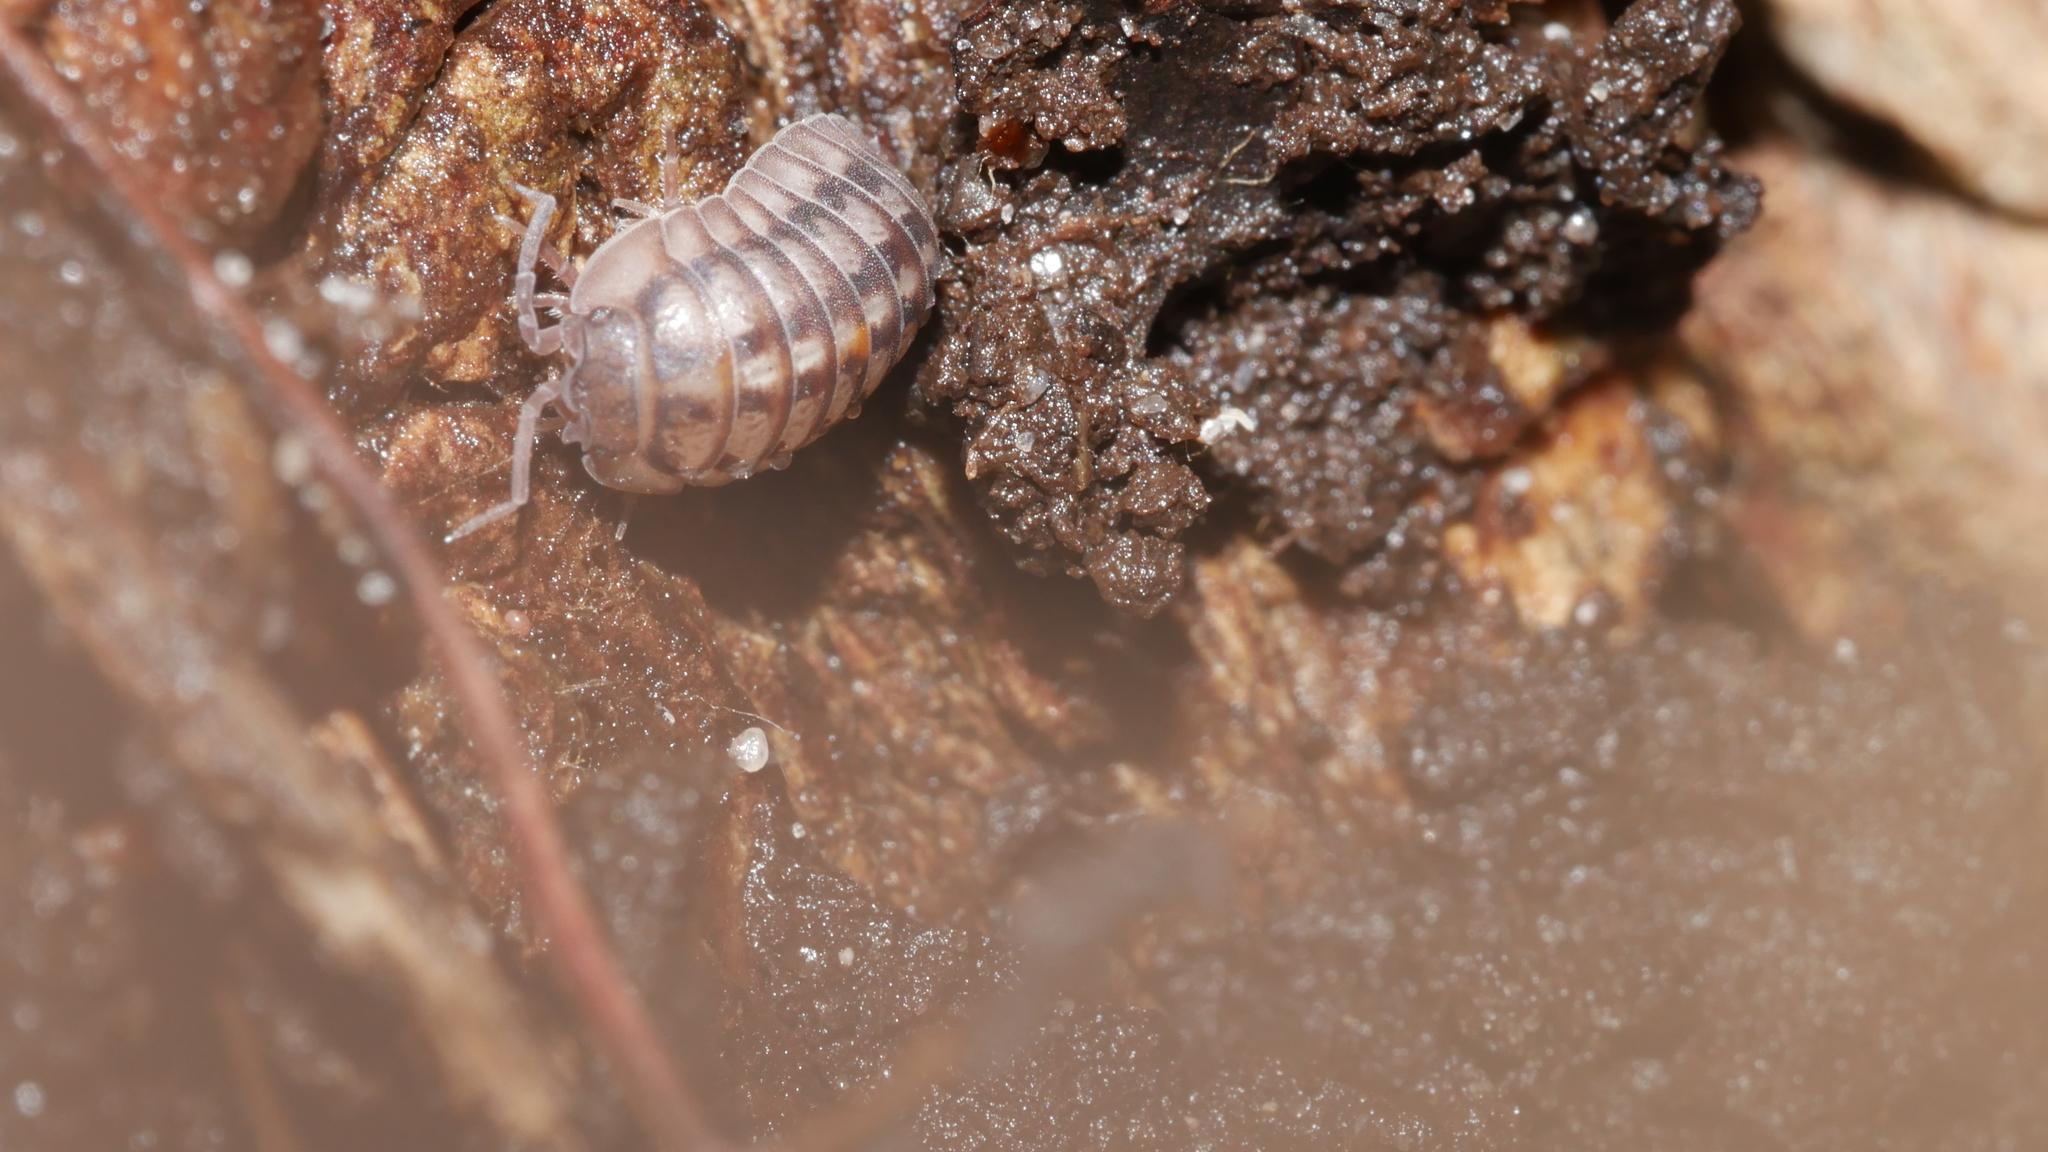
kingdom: Animalia
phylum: Arthropoda
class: Malacostraca
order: Isopoda
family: Armadillidiidae
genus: Armadillidium
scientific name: Armadillidium nasatum
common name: Isopod
